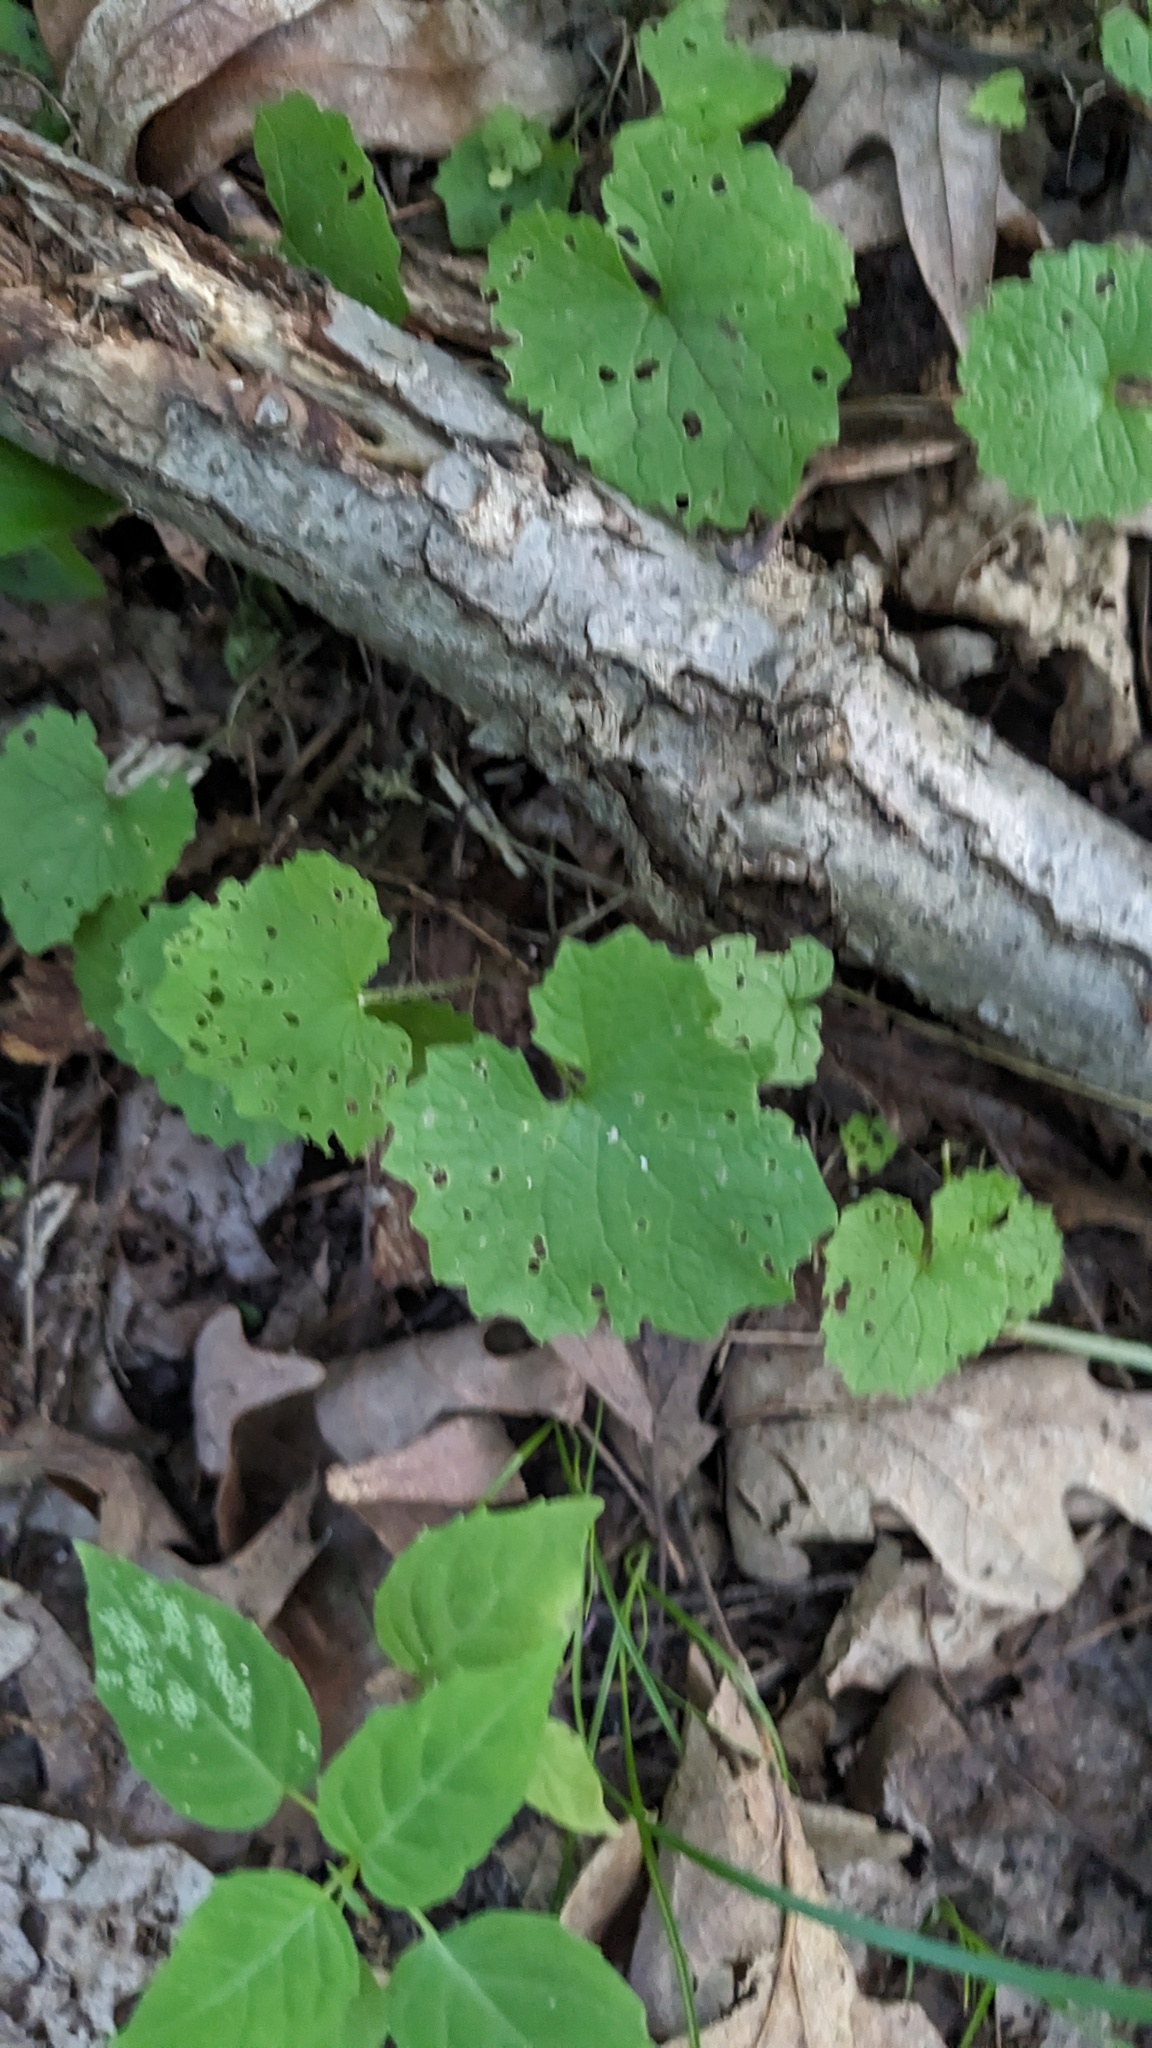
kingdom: Plantae
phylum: Tracheophyta
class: Magnoliopsida
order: Brassicales
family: Brassicaceae
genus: Alliaria
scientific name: Alliaria petiolata
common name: Garlic mustard
